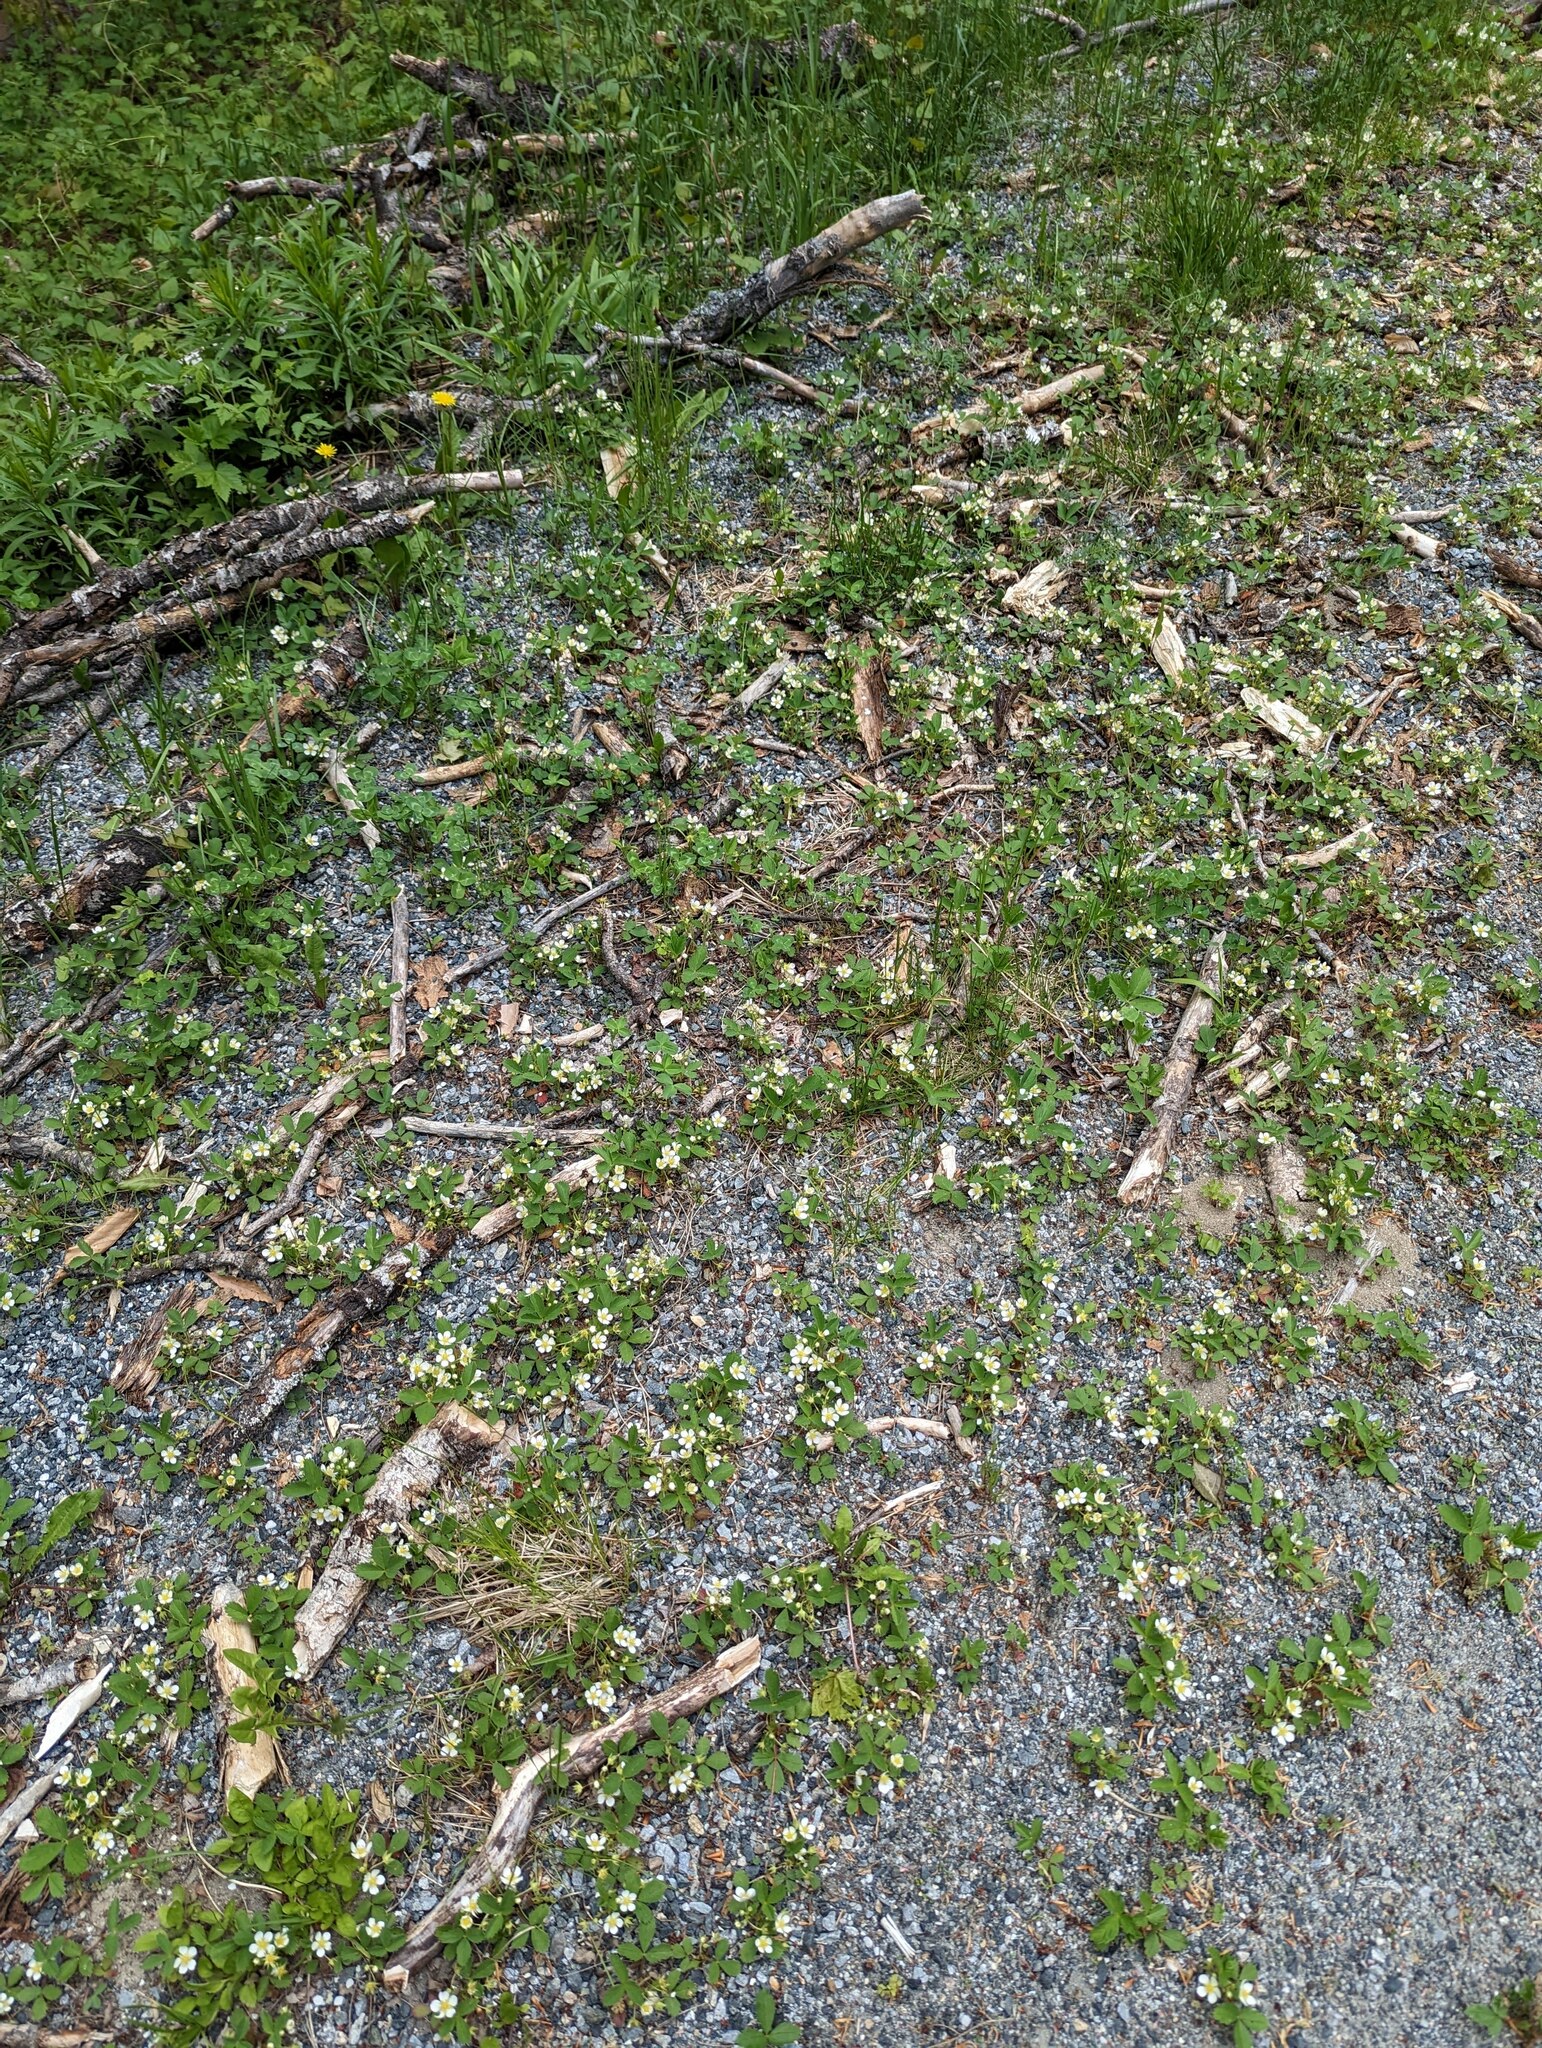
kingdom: Plantae
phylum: Tracheophyta
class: Magnoliopsida
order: Rosales
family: Rosaceae
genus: Fragaria
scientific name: Fragaria virginiana
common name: Thickleaved wild strawberry
